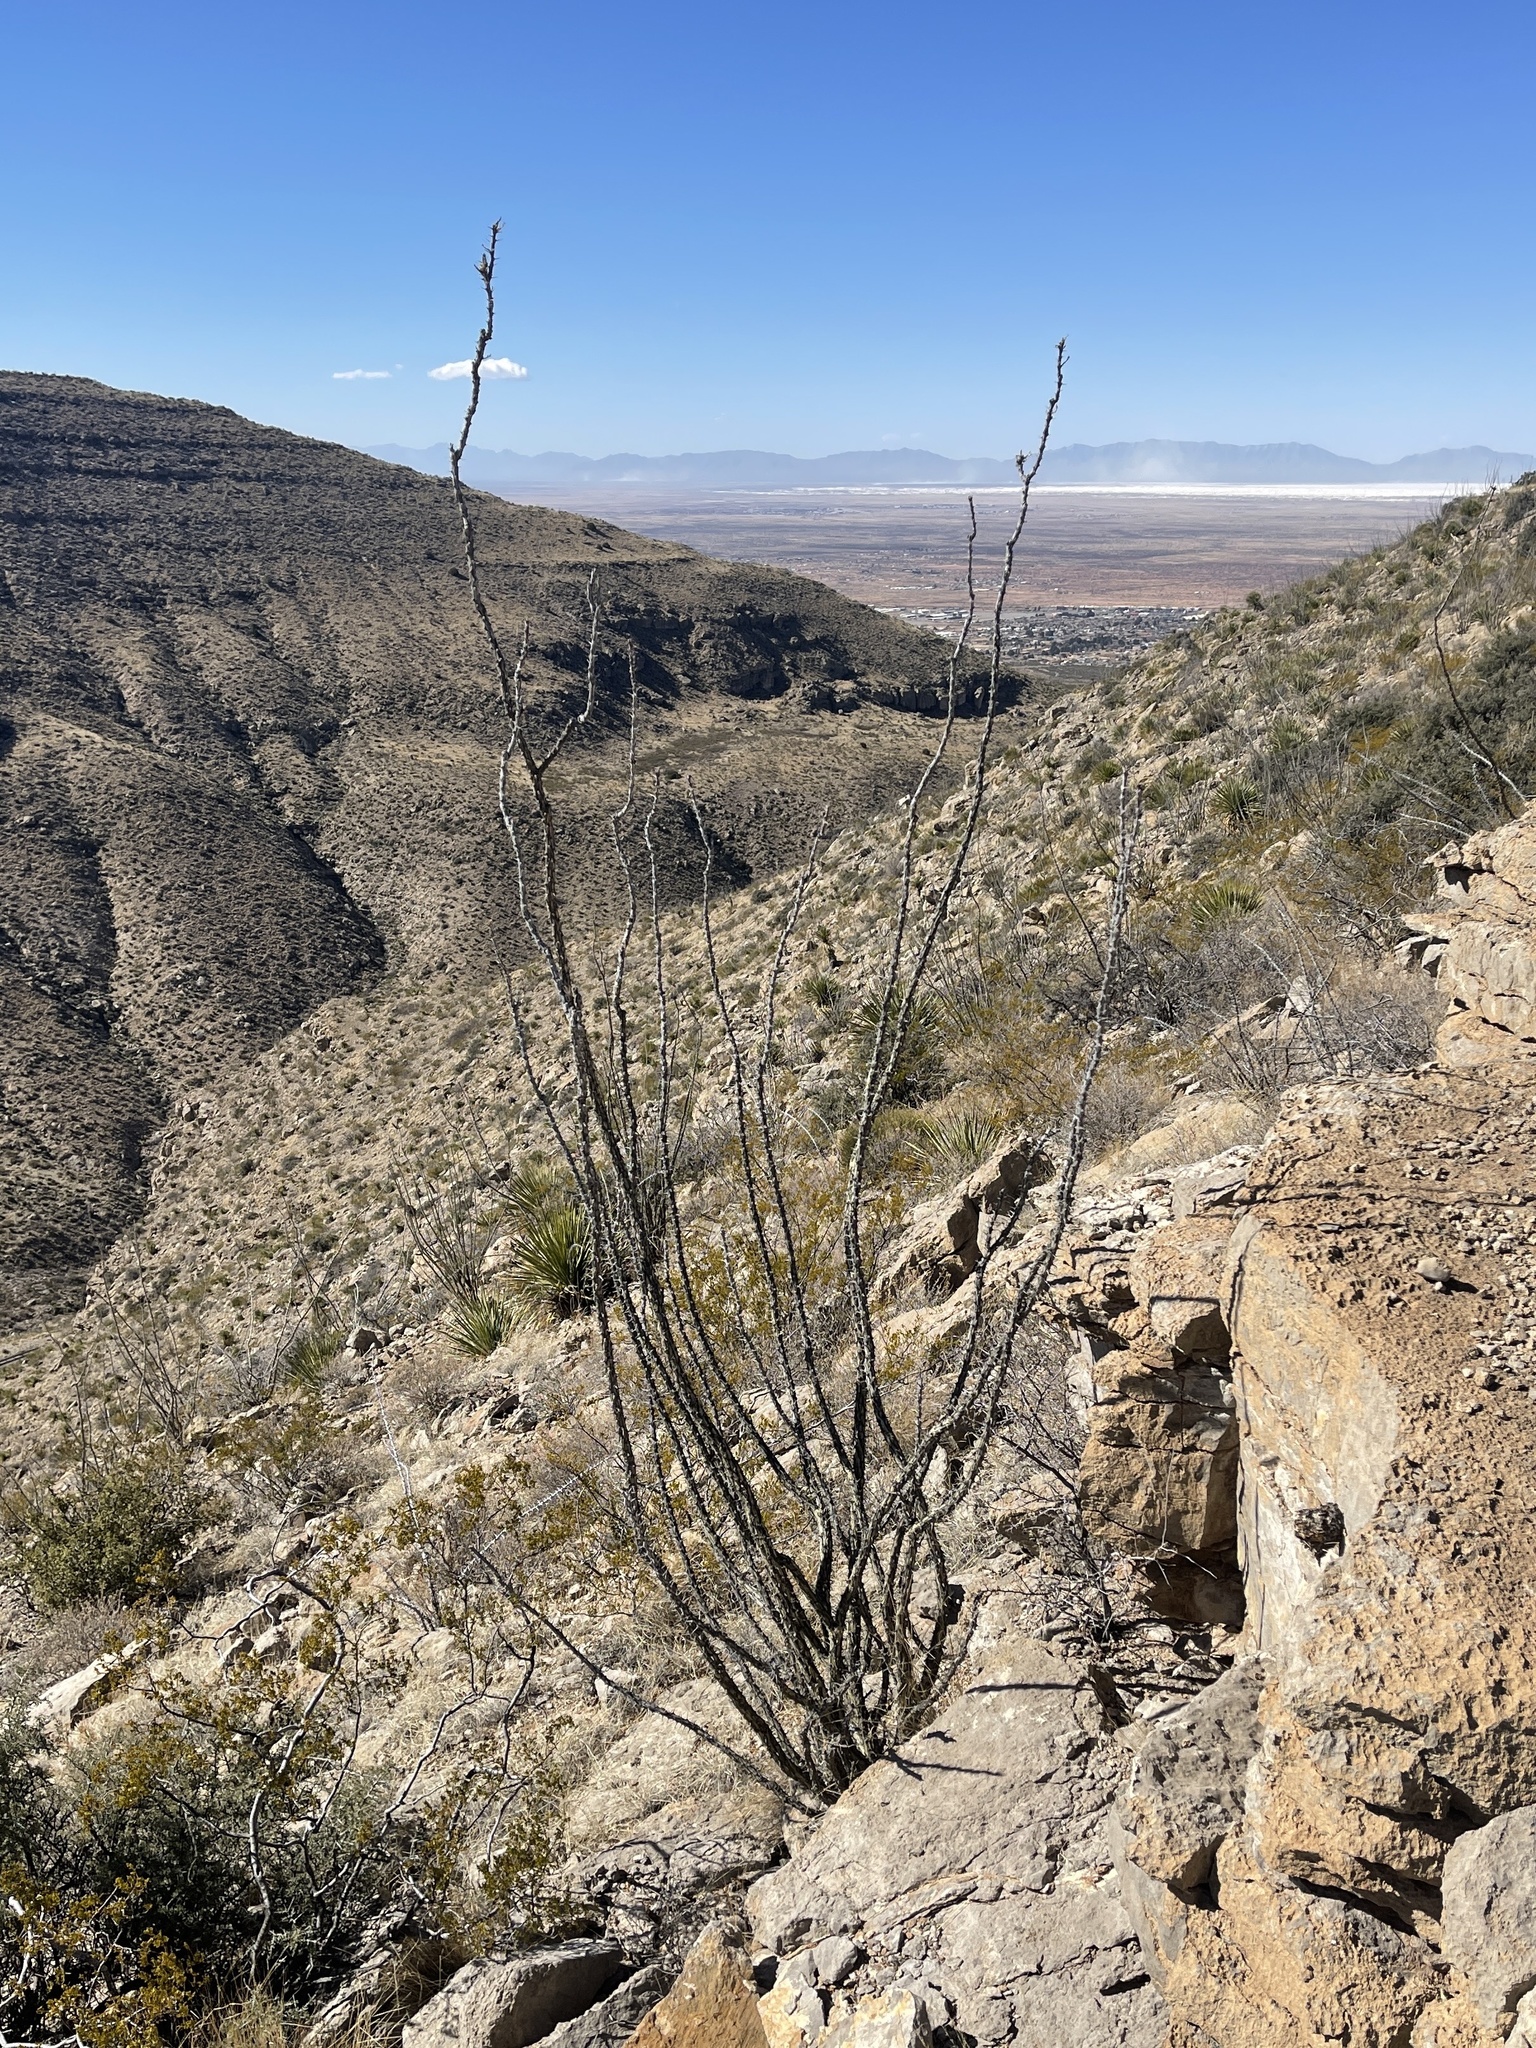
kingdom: Plantae
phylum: Tracheophyta
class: Magnoliopsida
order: Ericales
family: Fouquieriaceae
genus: Fouquieria
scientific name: Fouquieria splendens
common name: Vine-cactus
